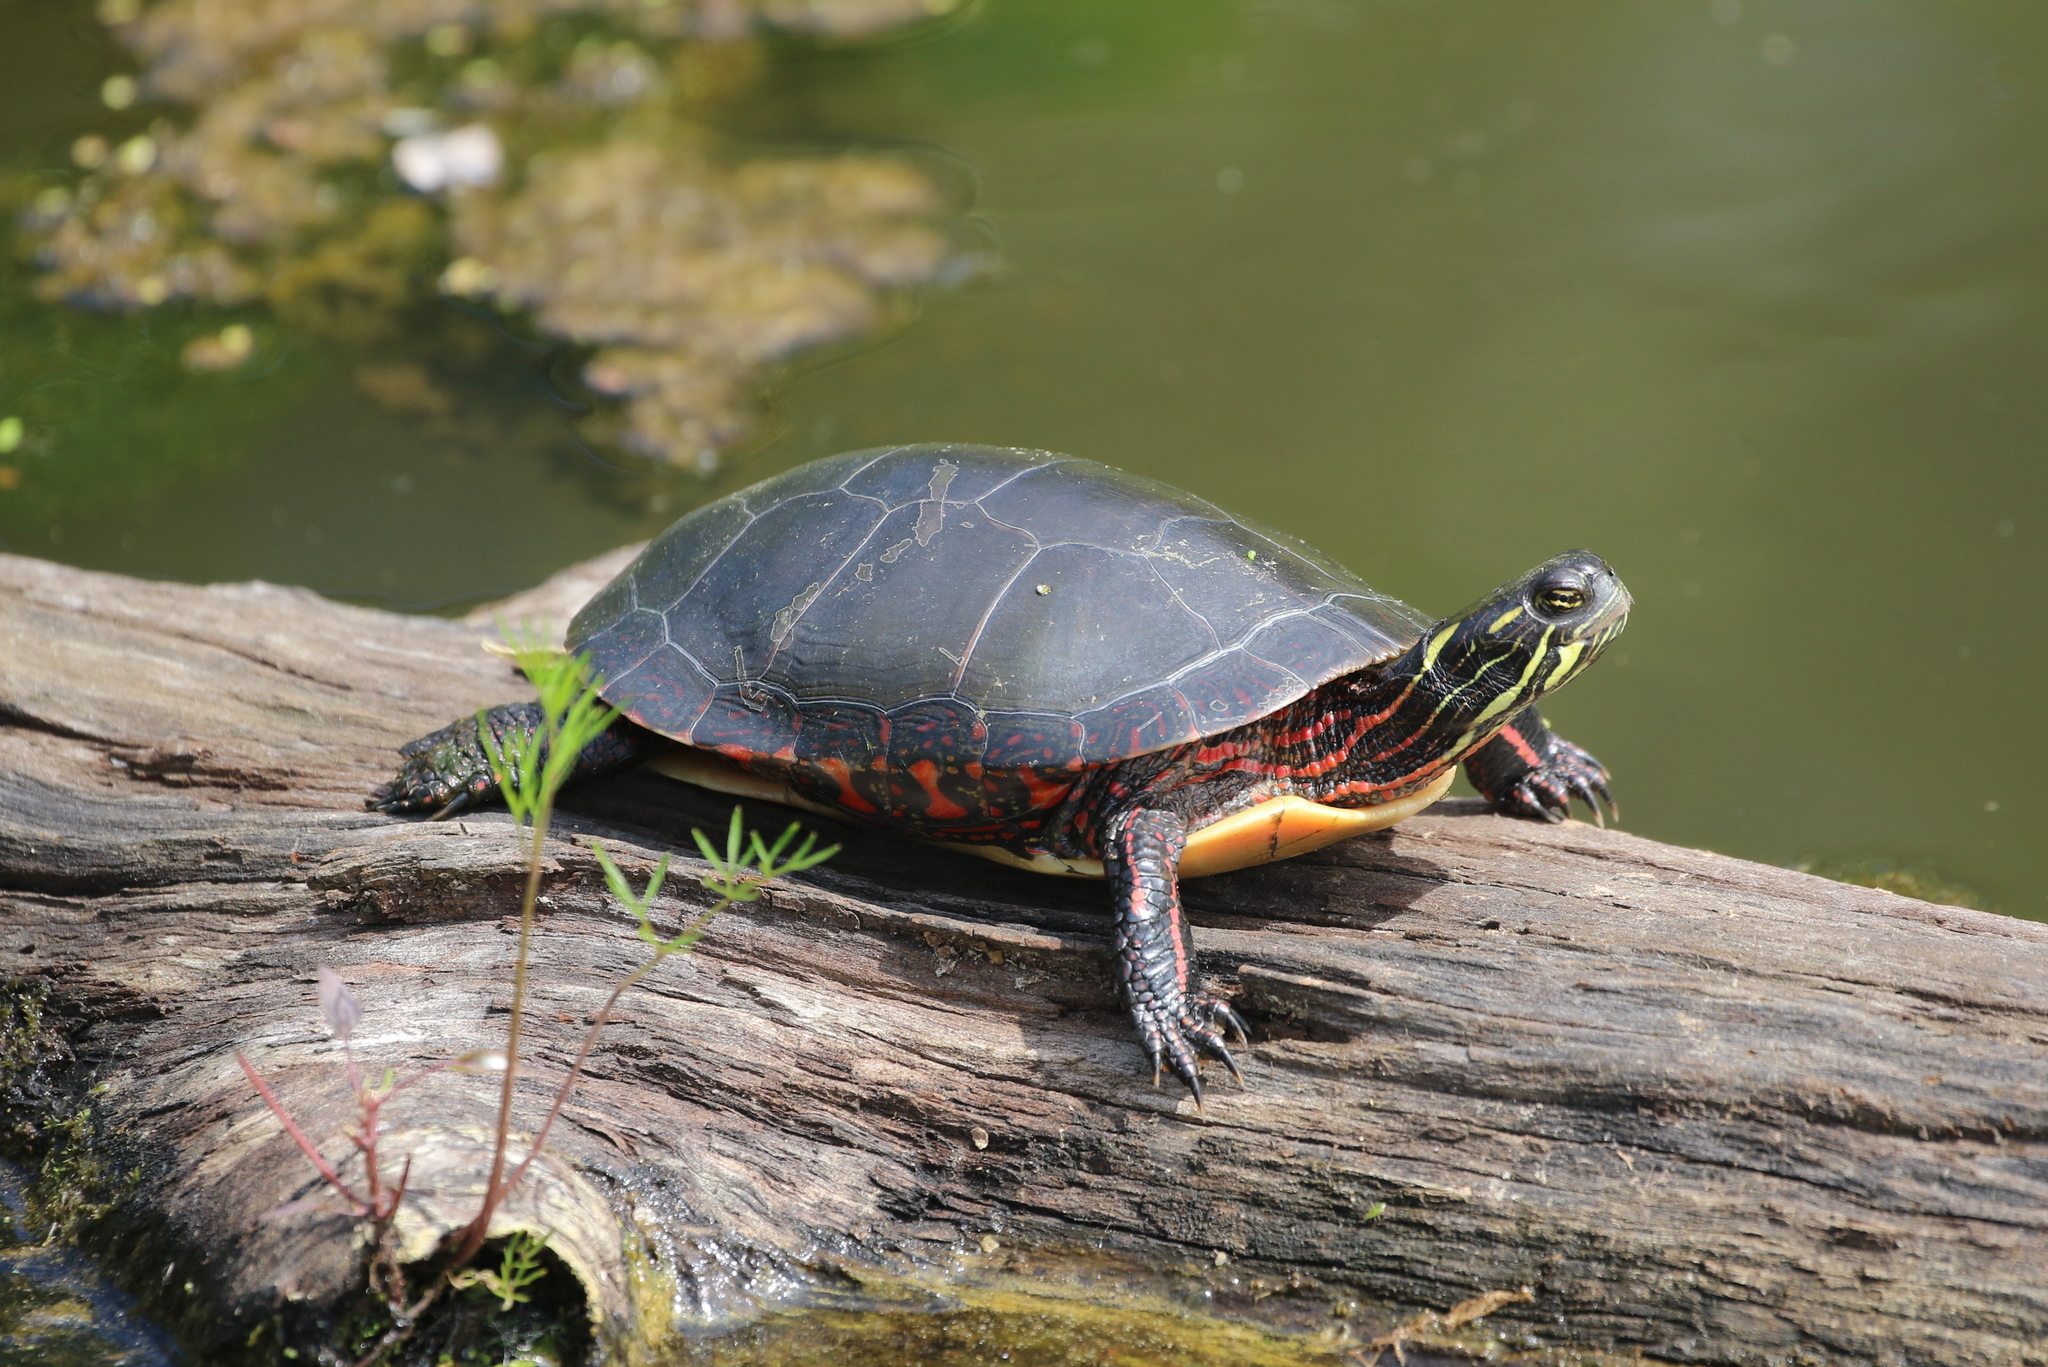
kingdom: Animalia
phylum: Chordata
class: Testudines
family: Emydidae
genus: Chrysemys
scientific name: Chrysemys picta
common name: Painted turtle
